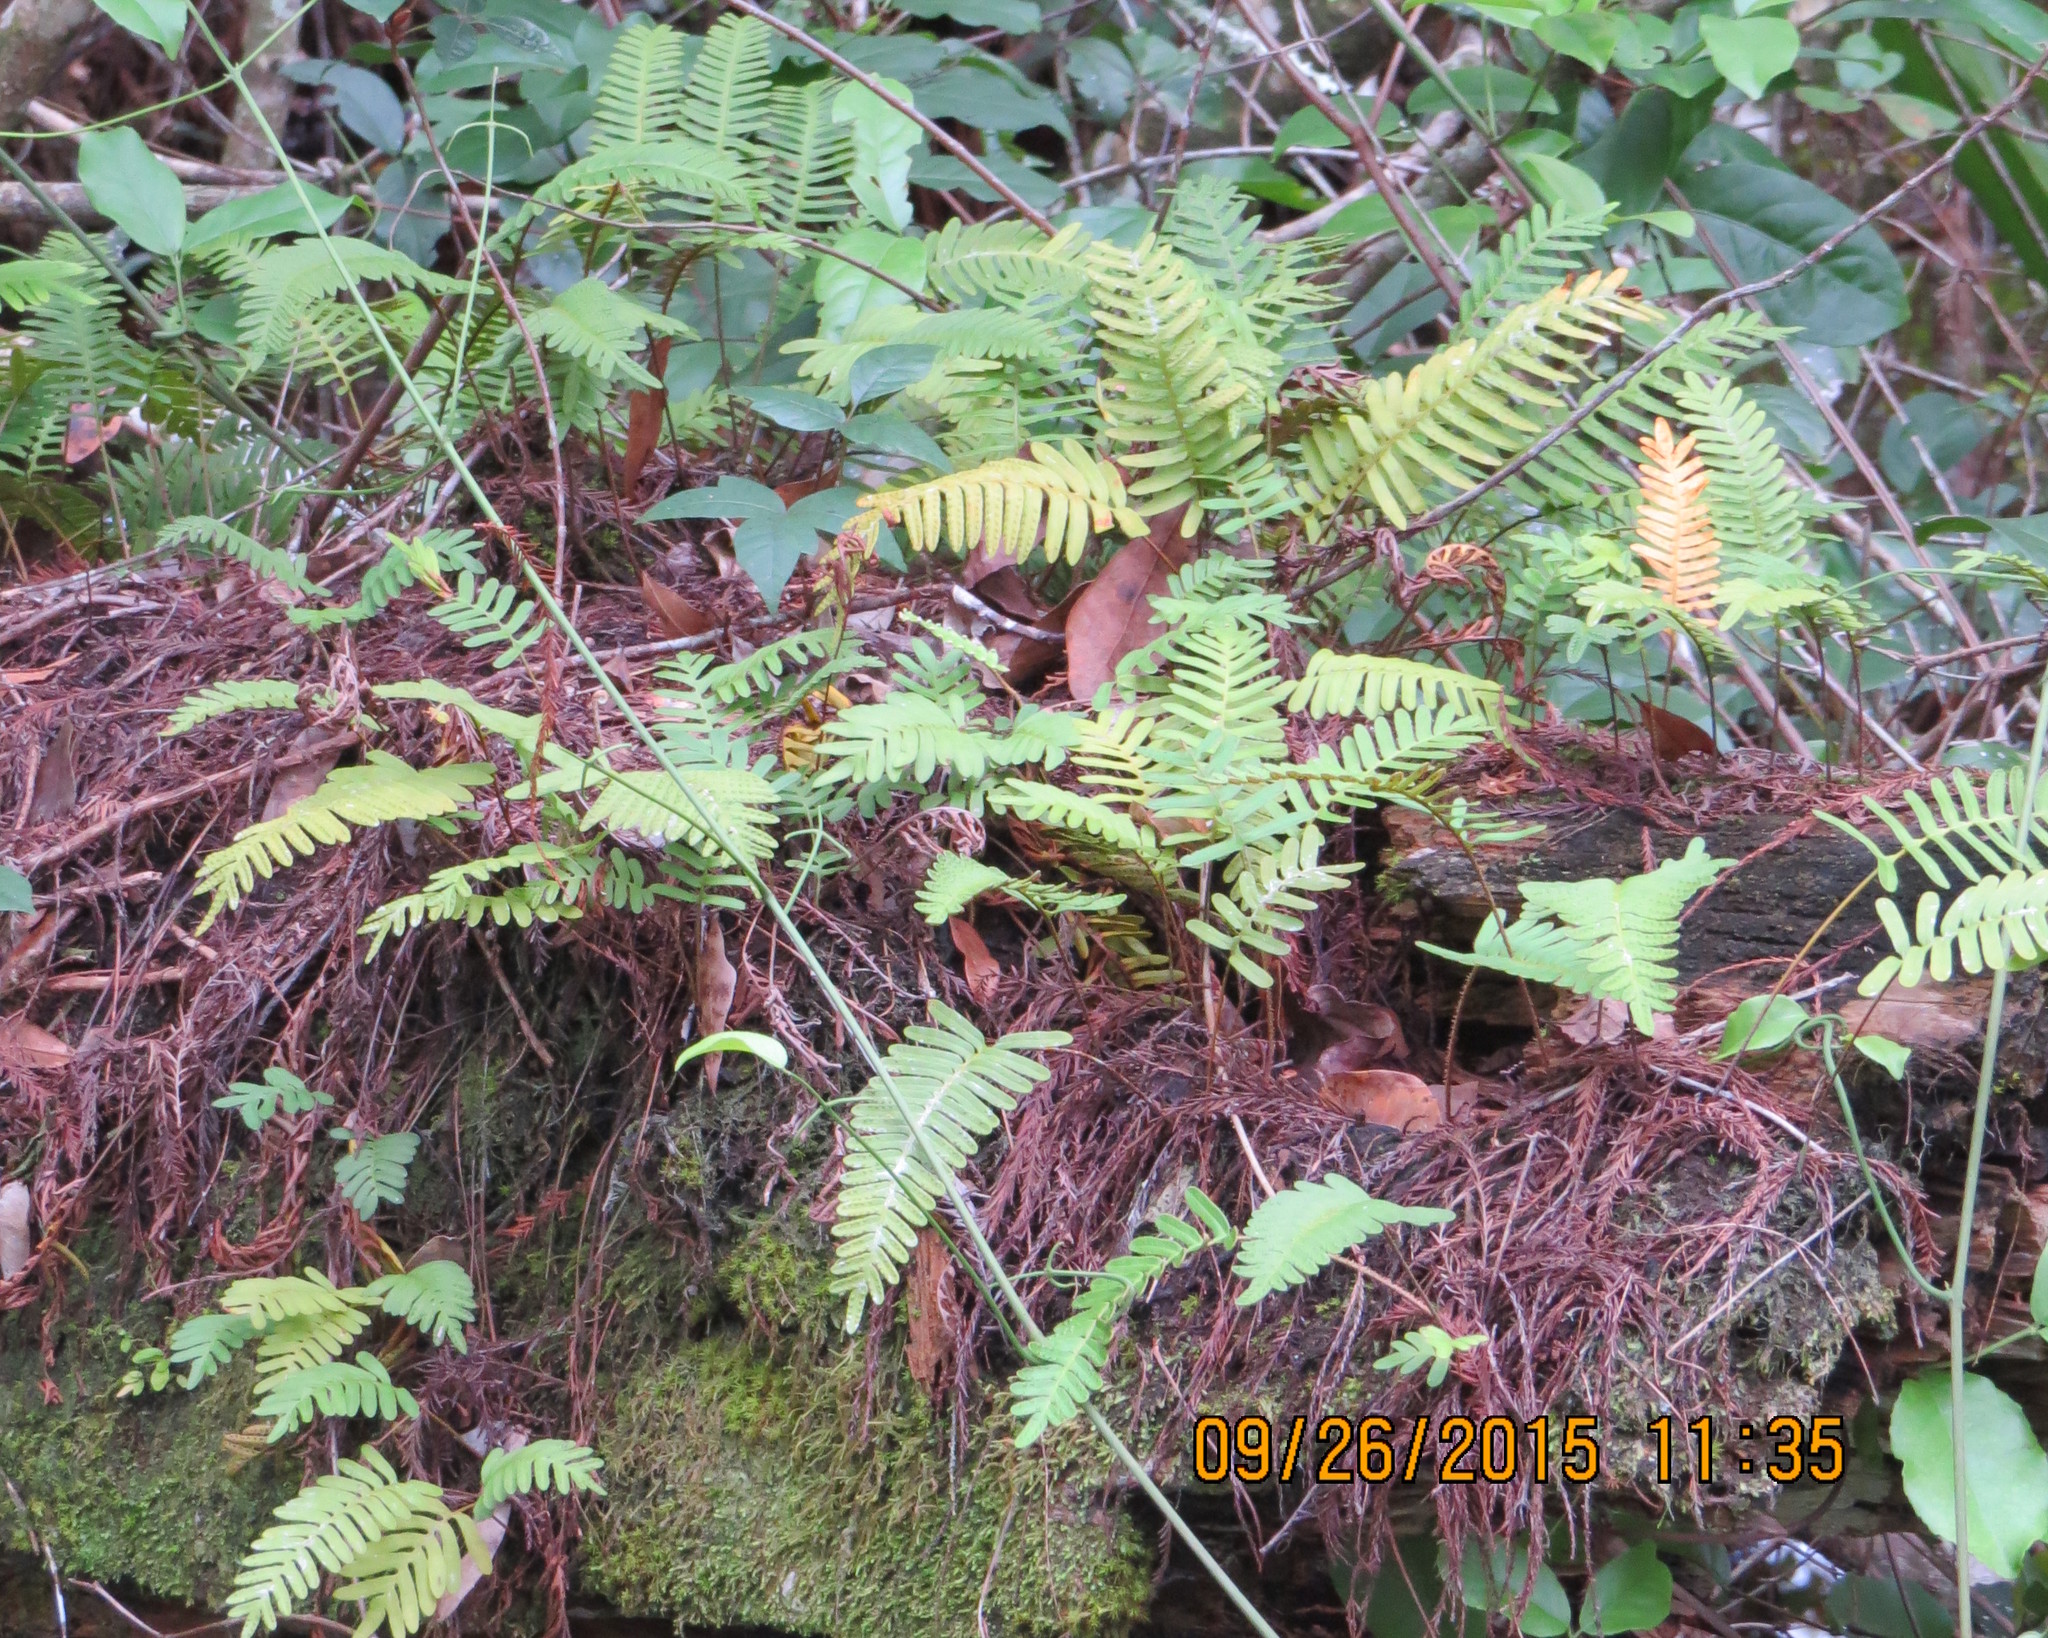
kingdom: Plantae
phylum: Tracheophyta
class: Polypodiopsida
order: Polypodiales
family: Polypodiaceae
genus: Pleopeltis
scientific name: Pleopeltis michauxiana
